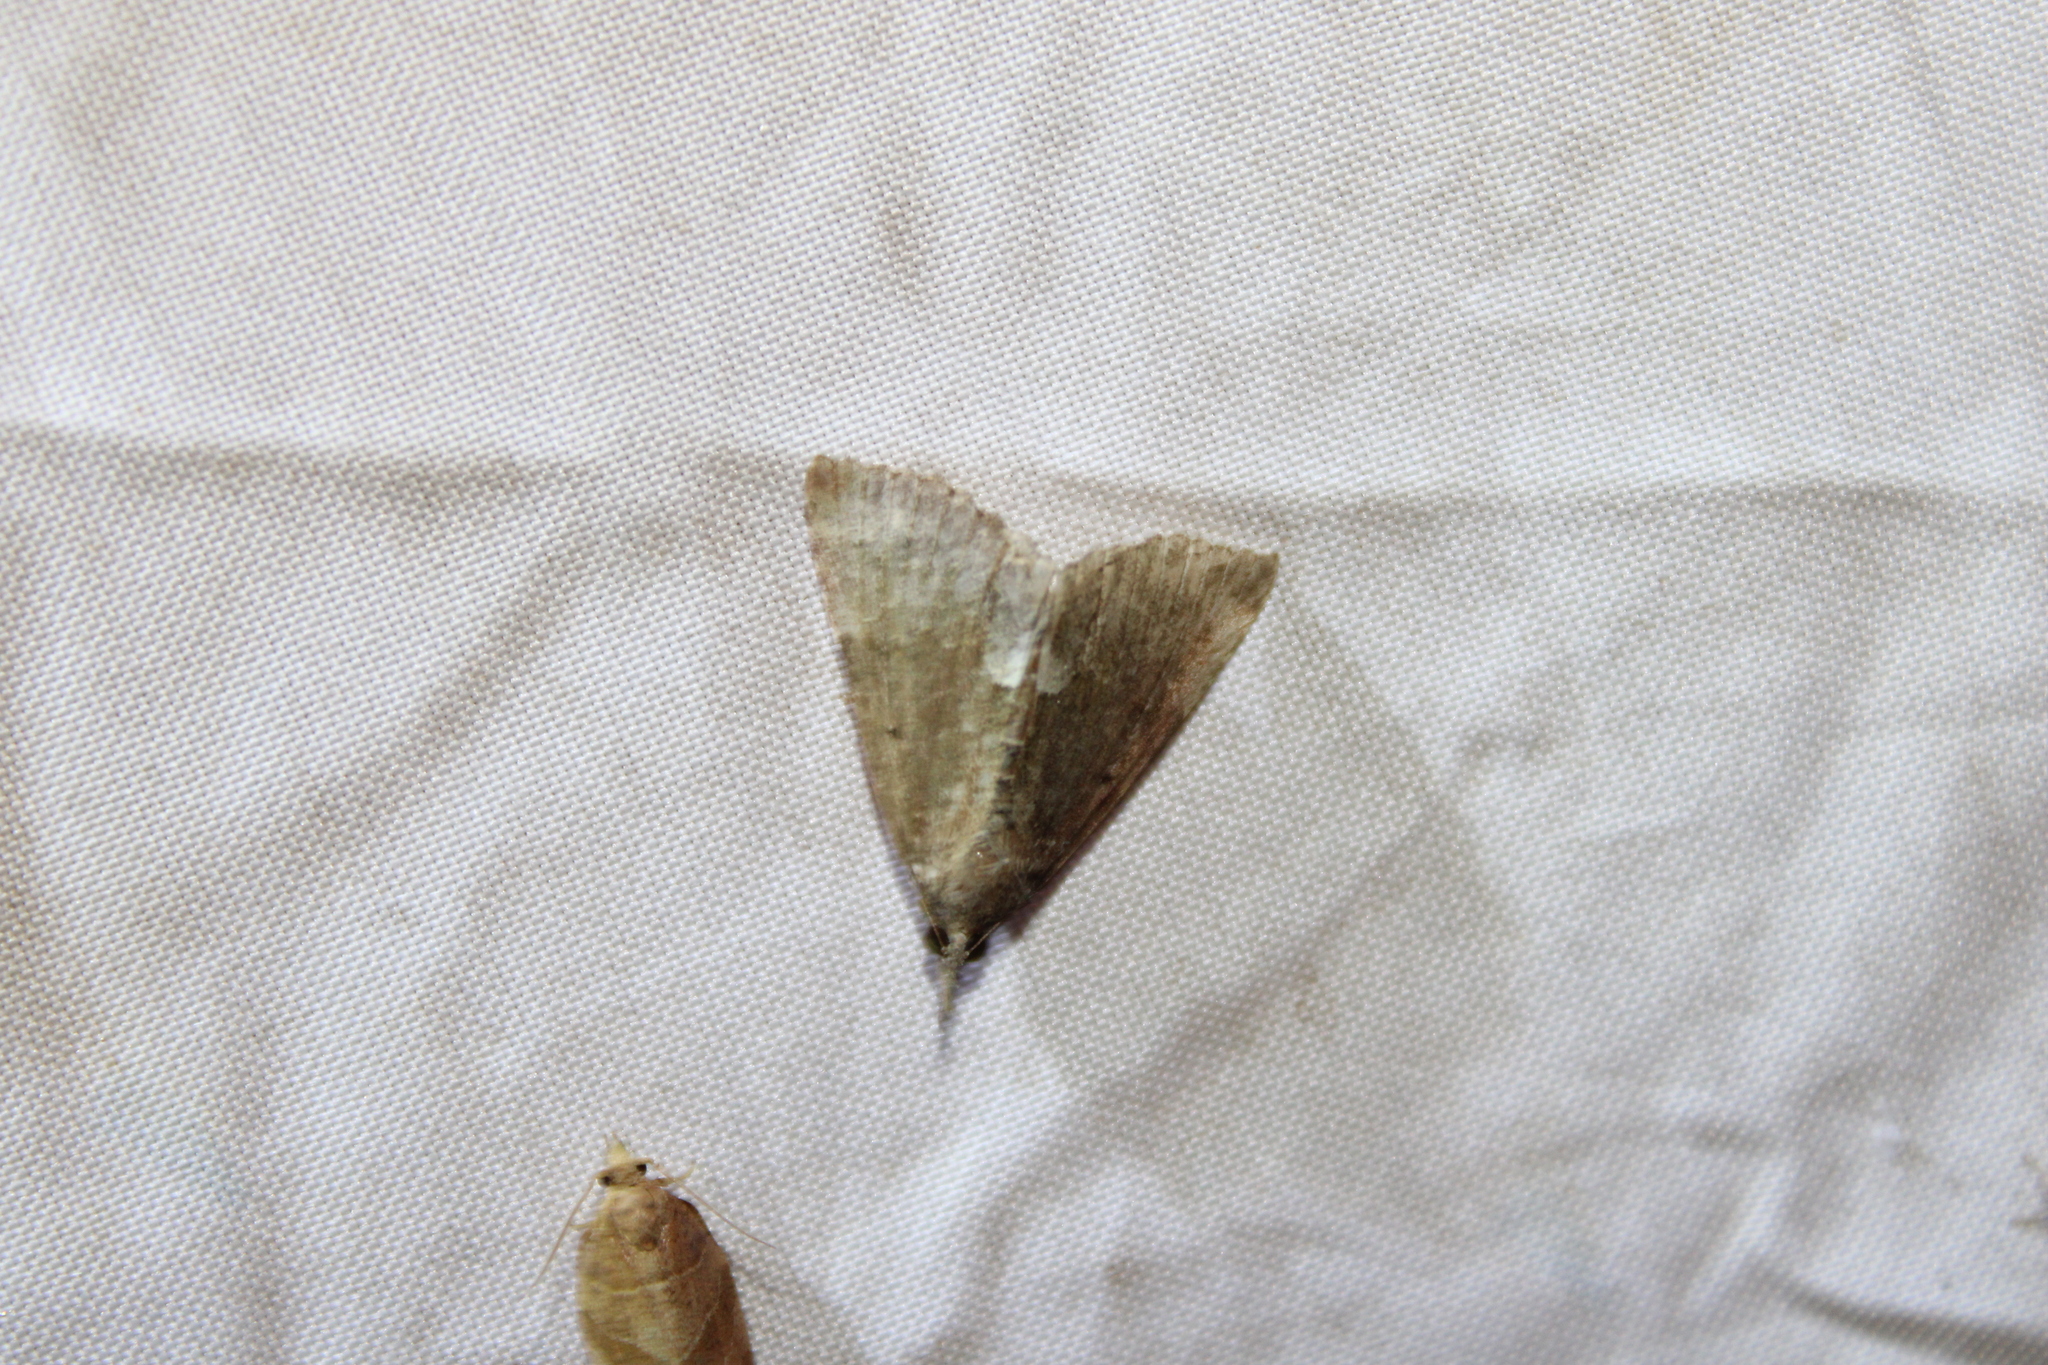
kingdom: Animalia
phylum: Arthropoda
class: Insecta
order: Lepidoptera
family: Erebidae
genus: Hypena
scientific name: Hypena scabra
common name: Green cloverworm
